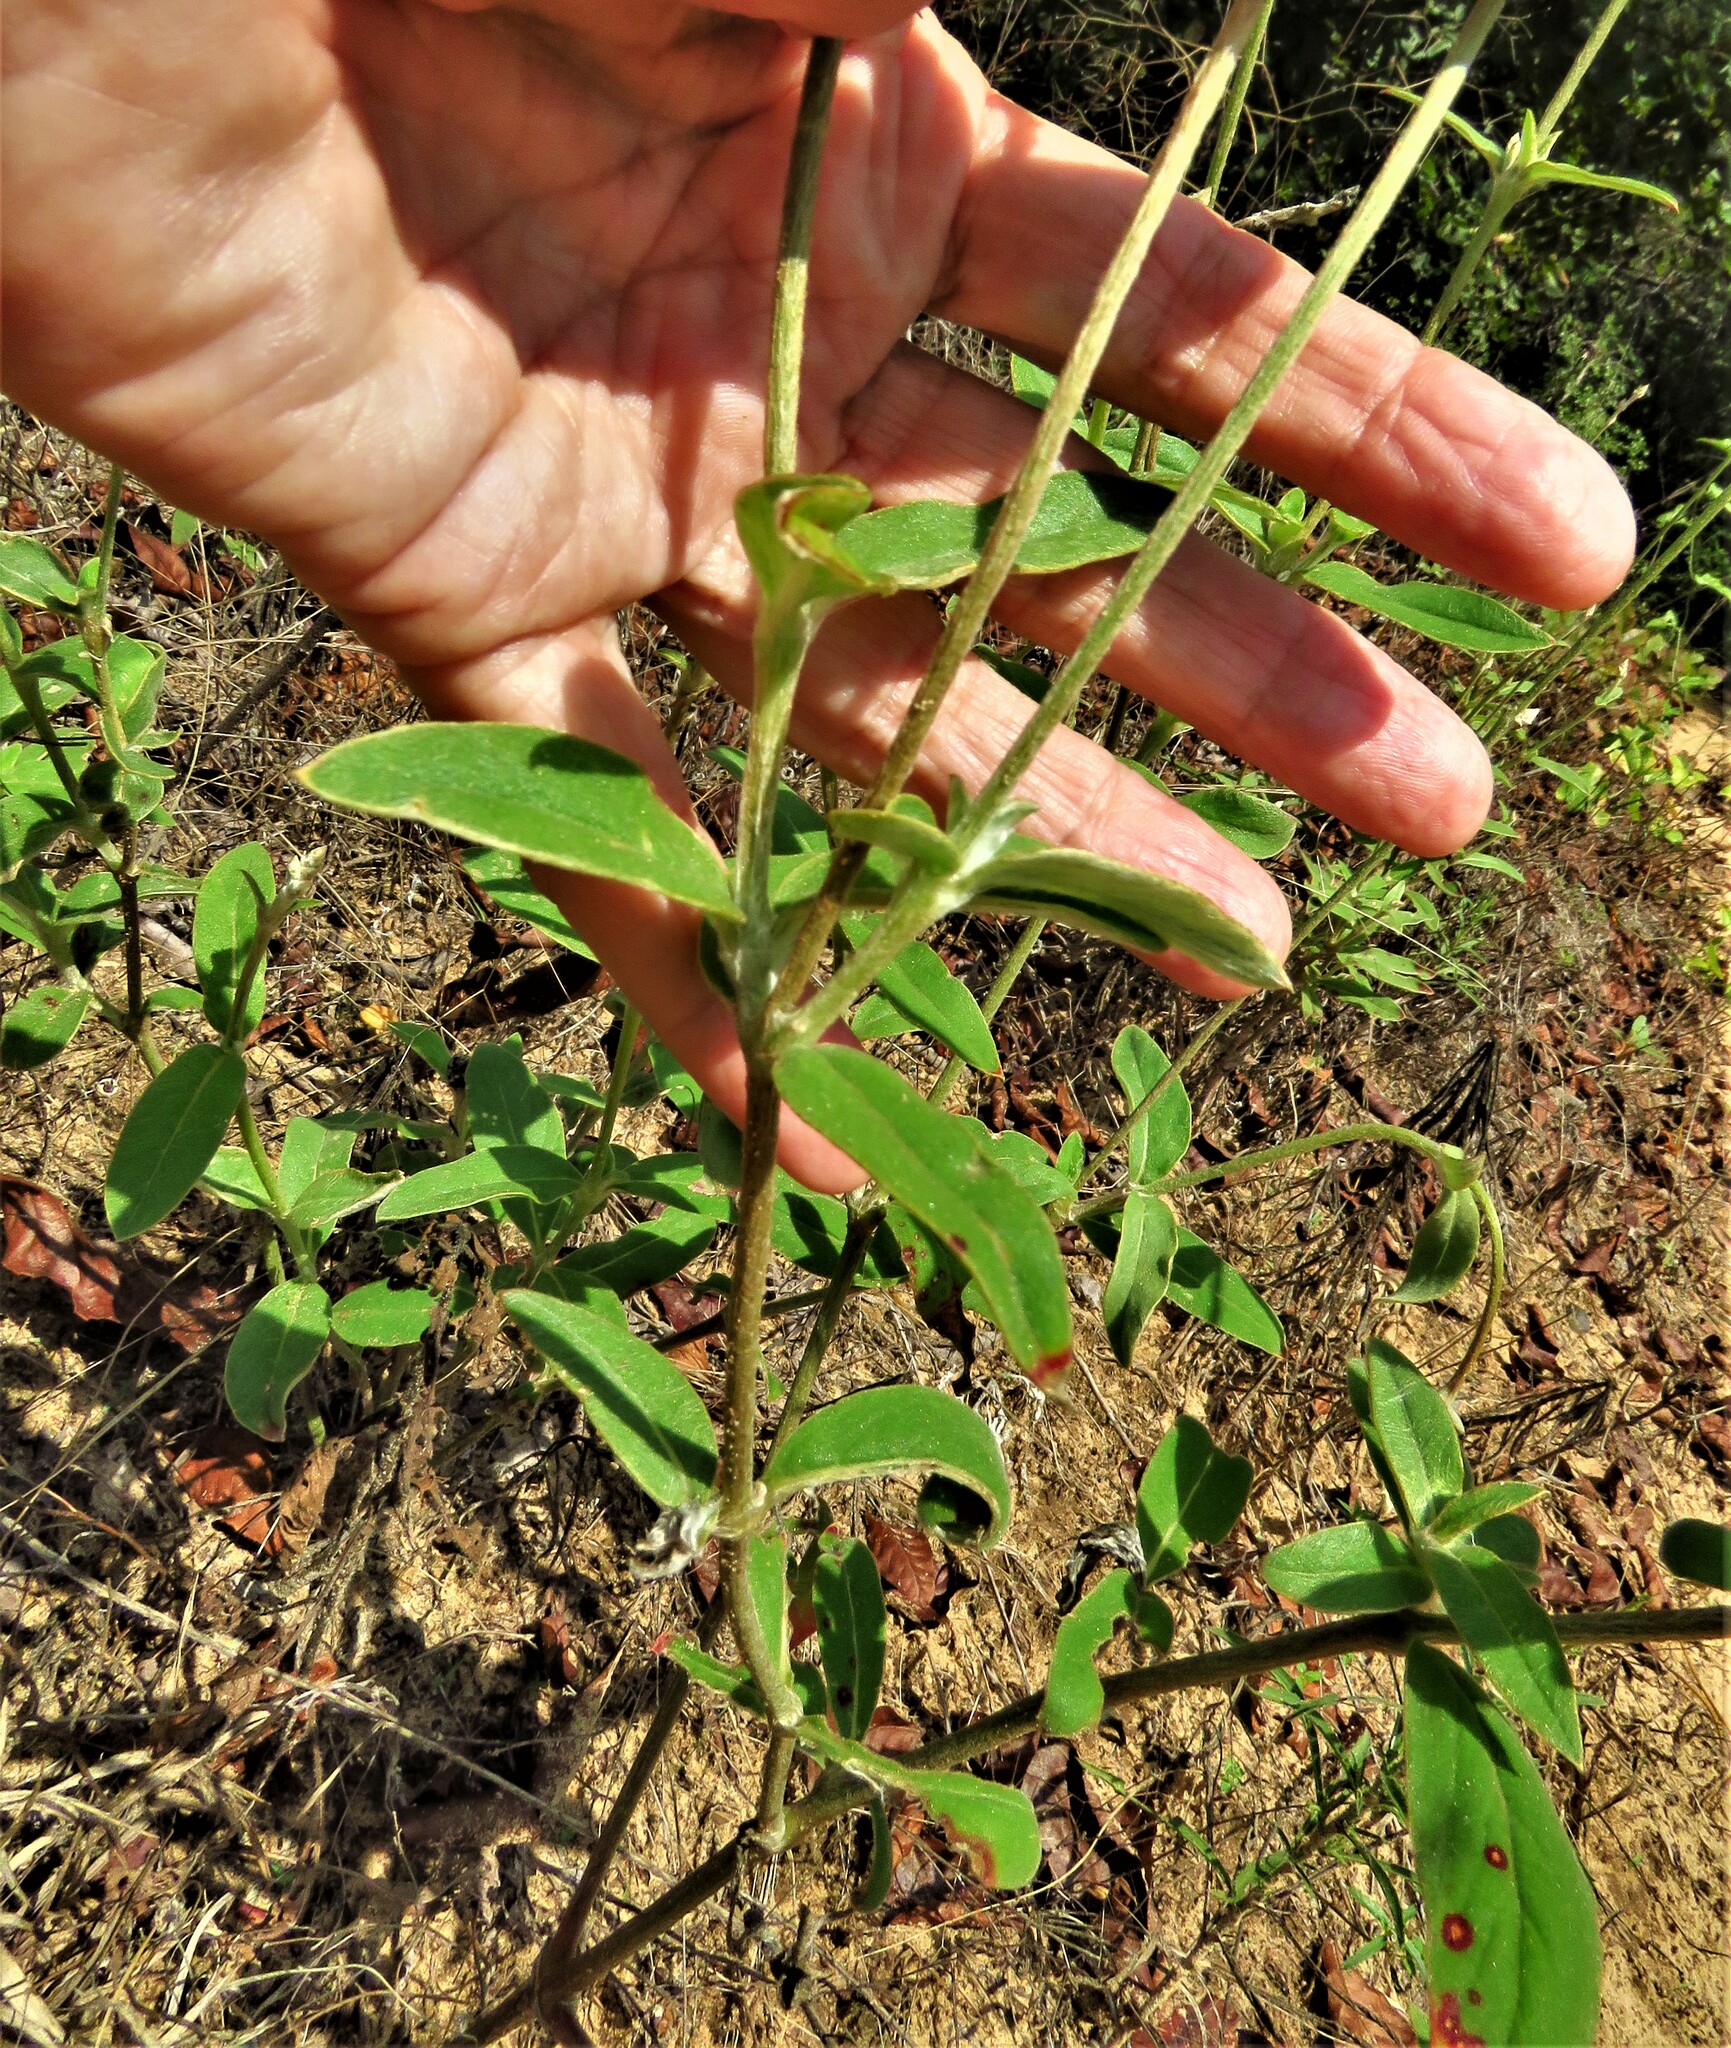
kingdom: Plantae
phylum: Tracheophyta
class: Magnoliopsida
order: Caryophyllales
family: Amaranthaceae
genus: Froelichia
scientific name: Froelichia floridana
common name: Florida snake-cotton
